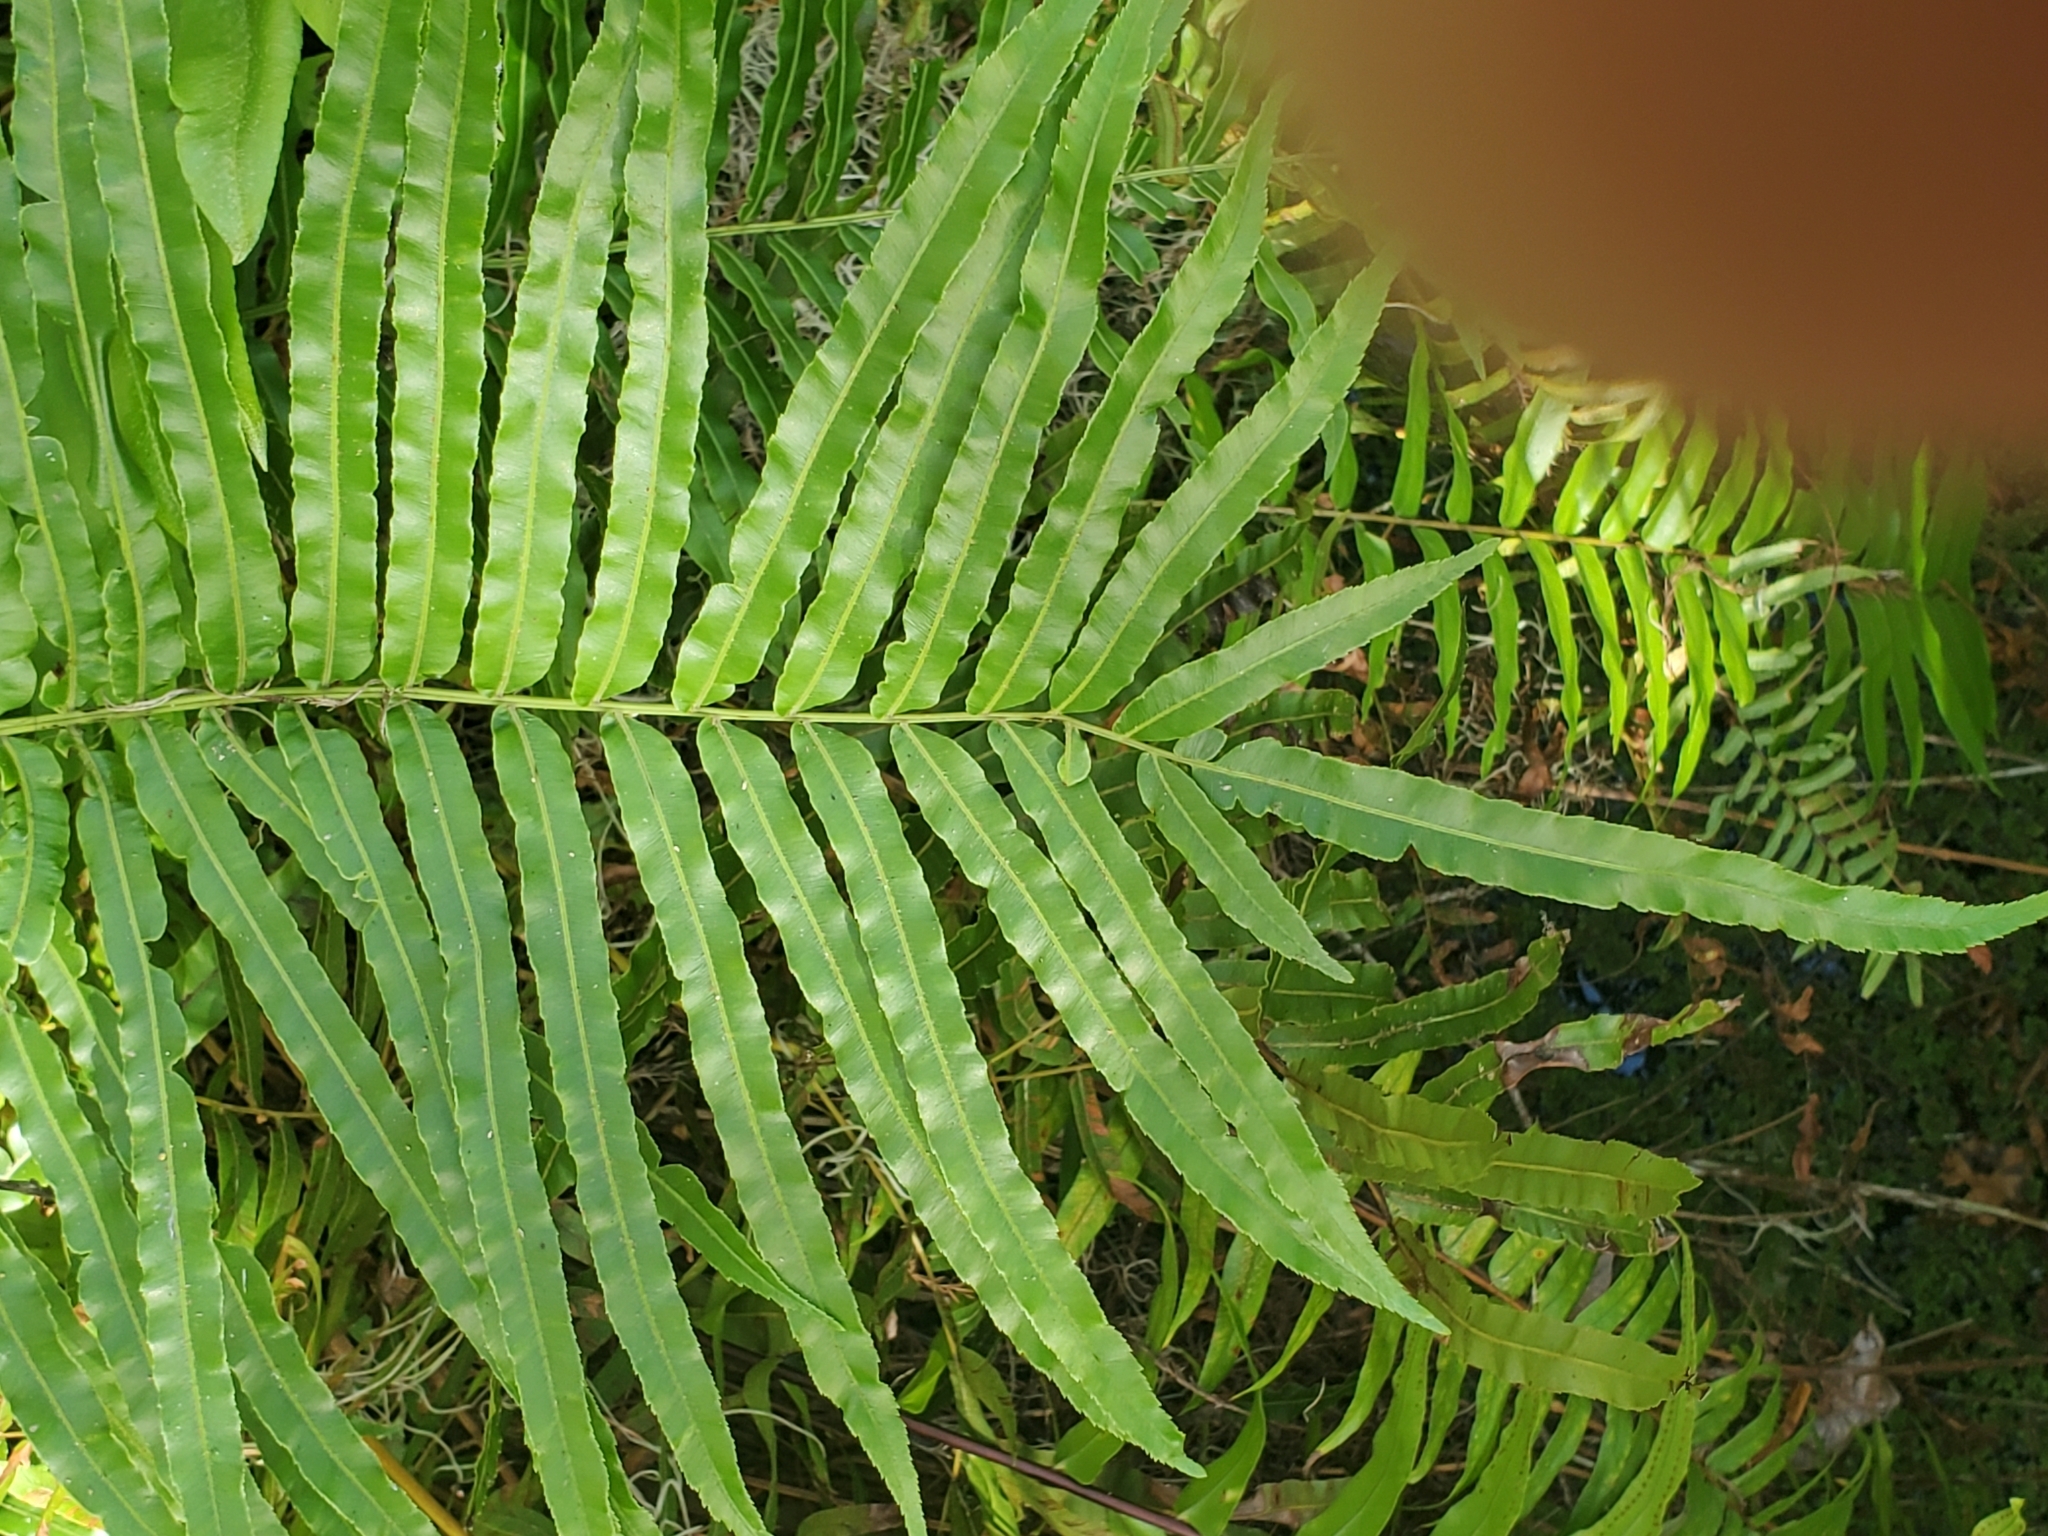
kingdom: Plantae
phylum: Tracheophyta
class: Polypodiopsida
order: Polypodiales
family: Blechnaceae
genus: Telmatoblechnum
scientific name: Telmatoblechnum serrulatum
